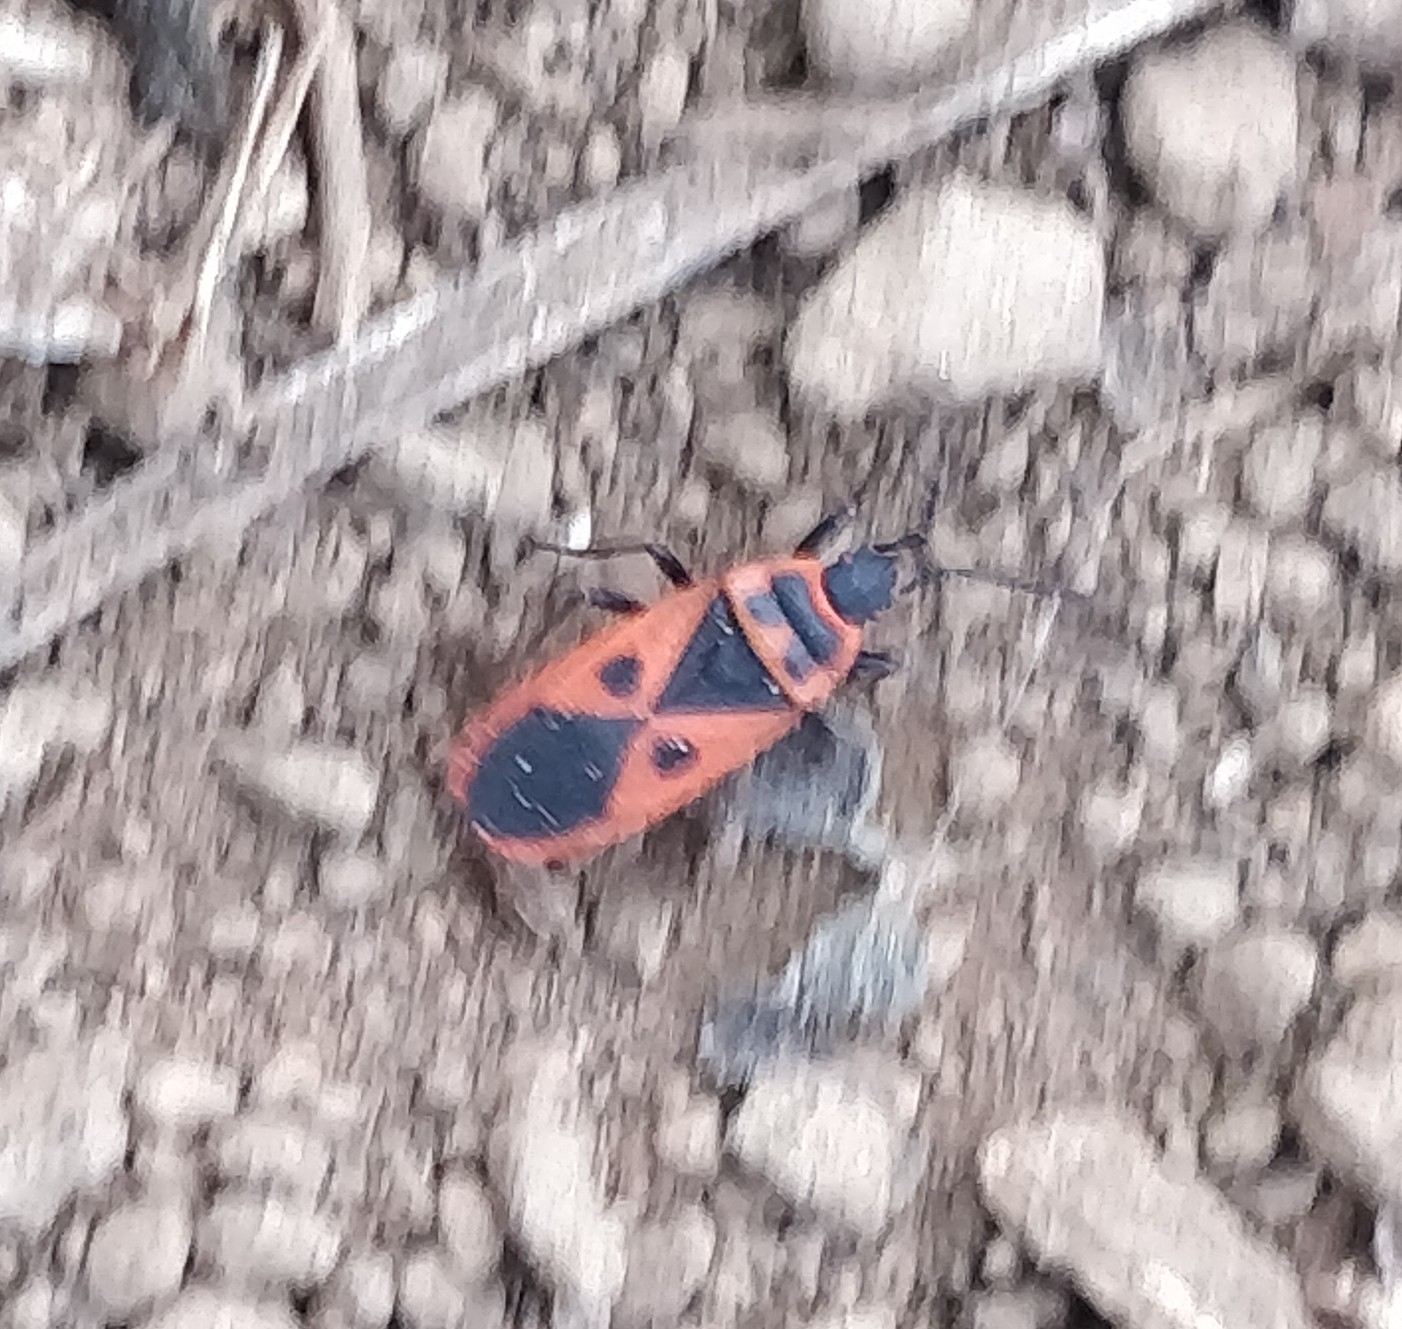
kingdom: Animalia
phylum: Arthropoda
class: Insecta
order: Hemiptera
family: Pyrrhocoridae
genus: Scantius
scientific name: Scantius aegyptius
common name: Red bug
